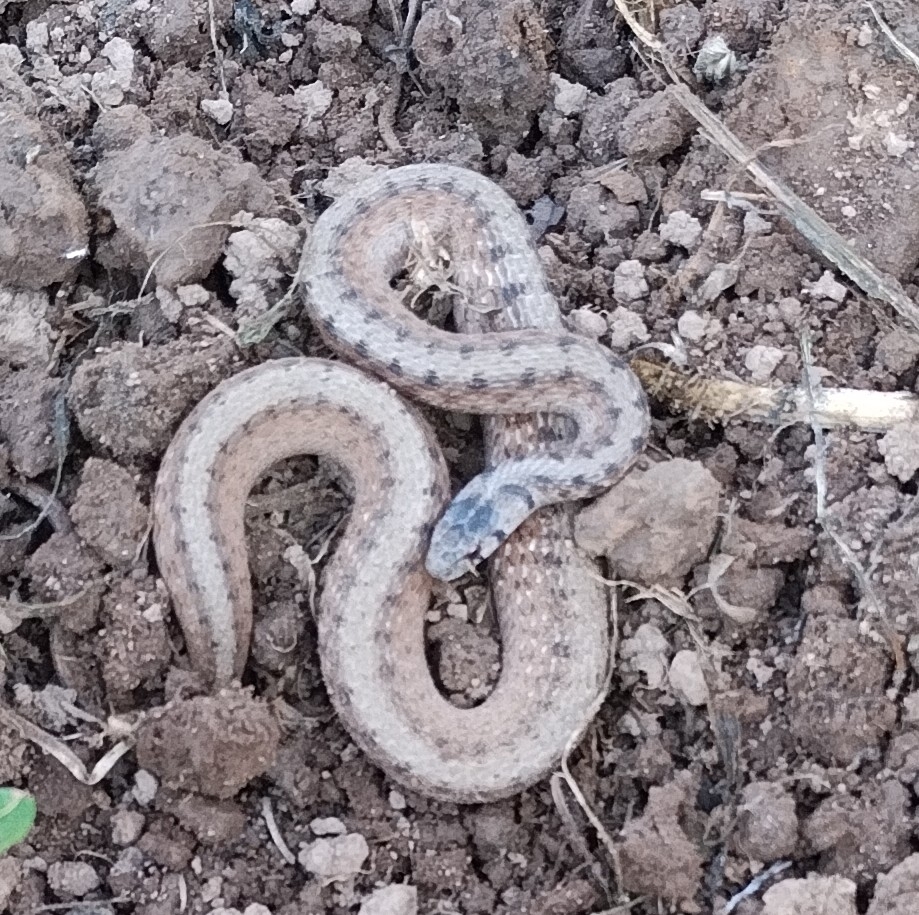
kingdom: Animalia
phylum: Chordata
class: Squamata
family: Colubridae
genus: Storeria
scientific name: Storeria dekayi
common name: (dekay’s) brown snake
